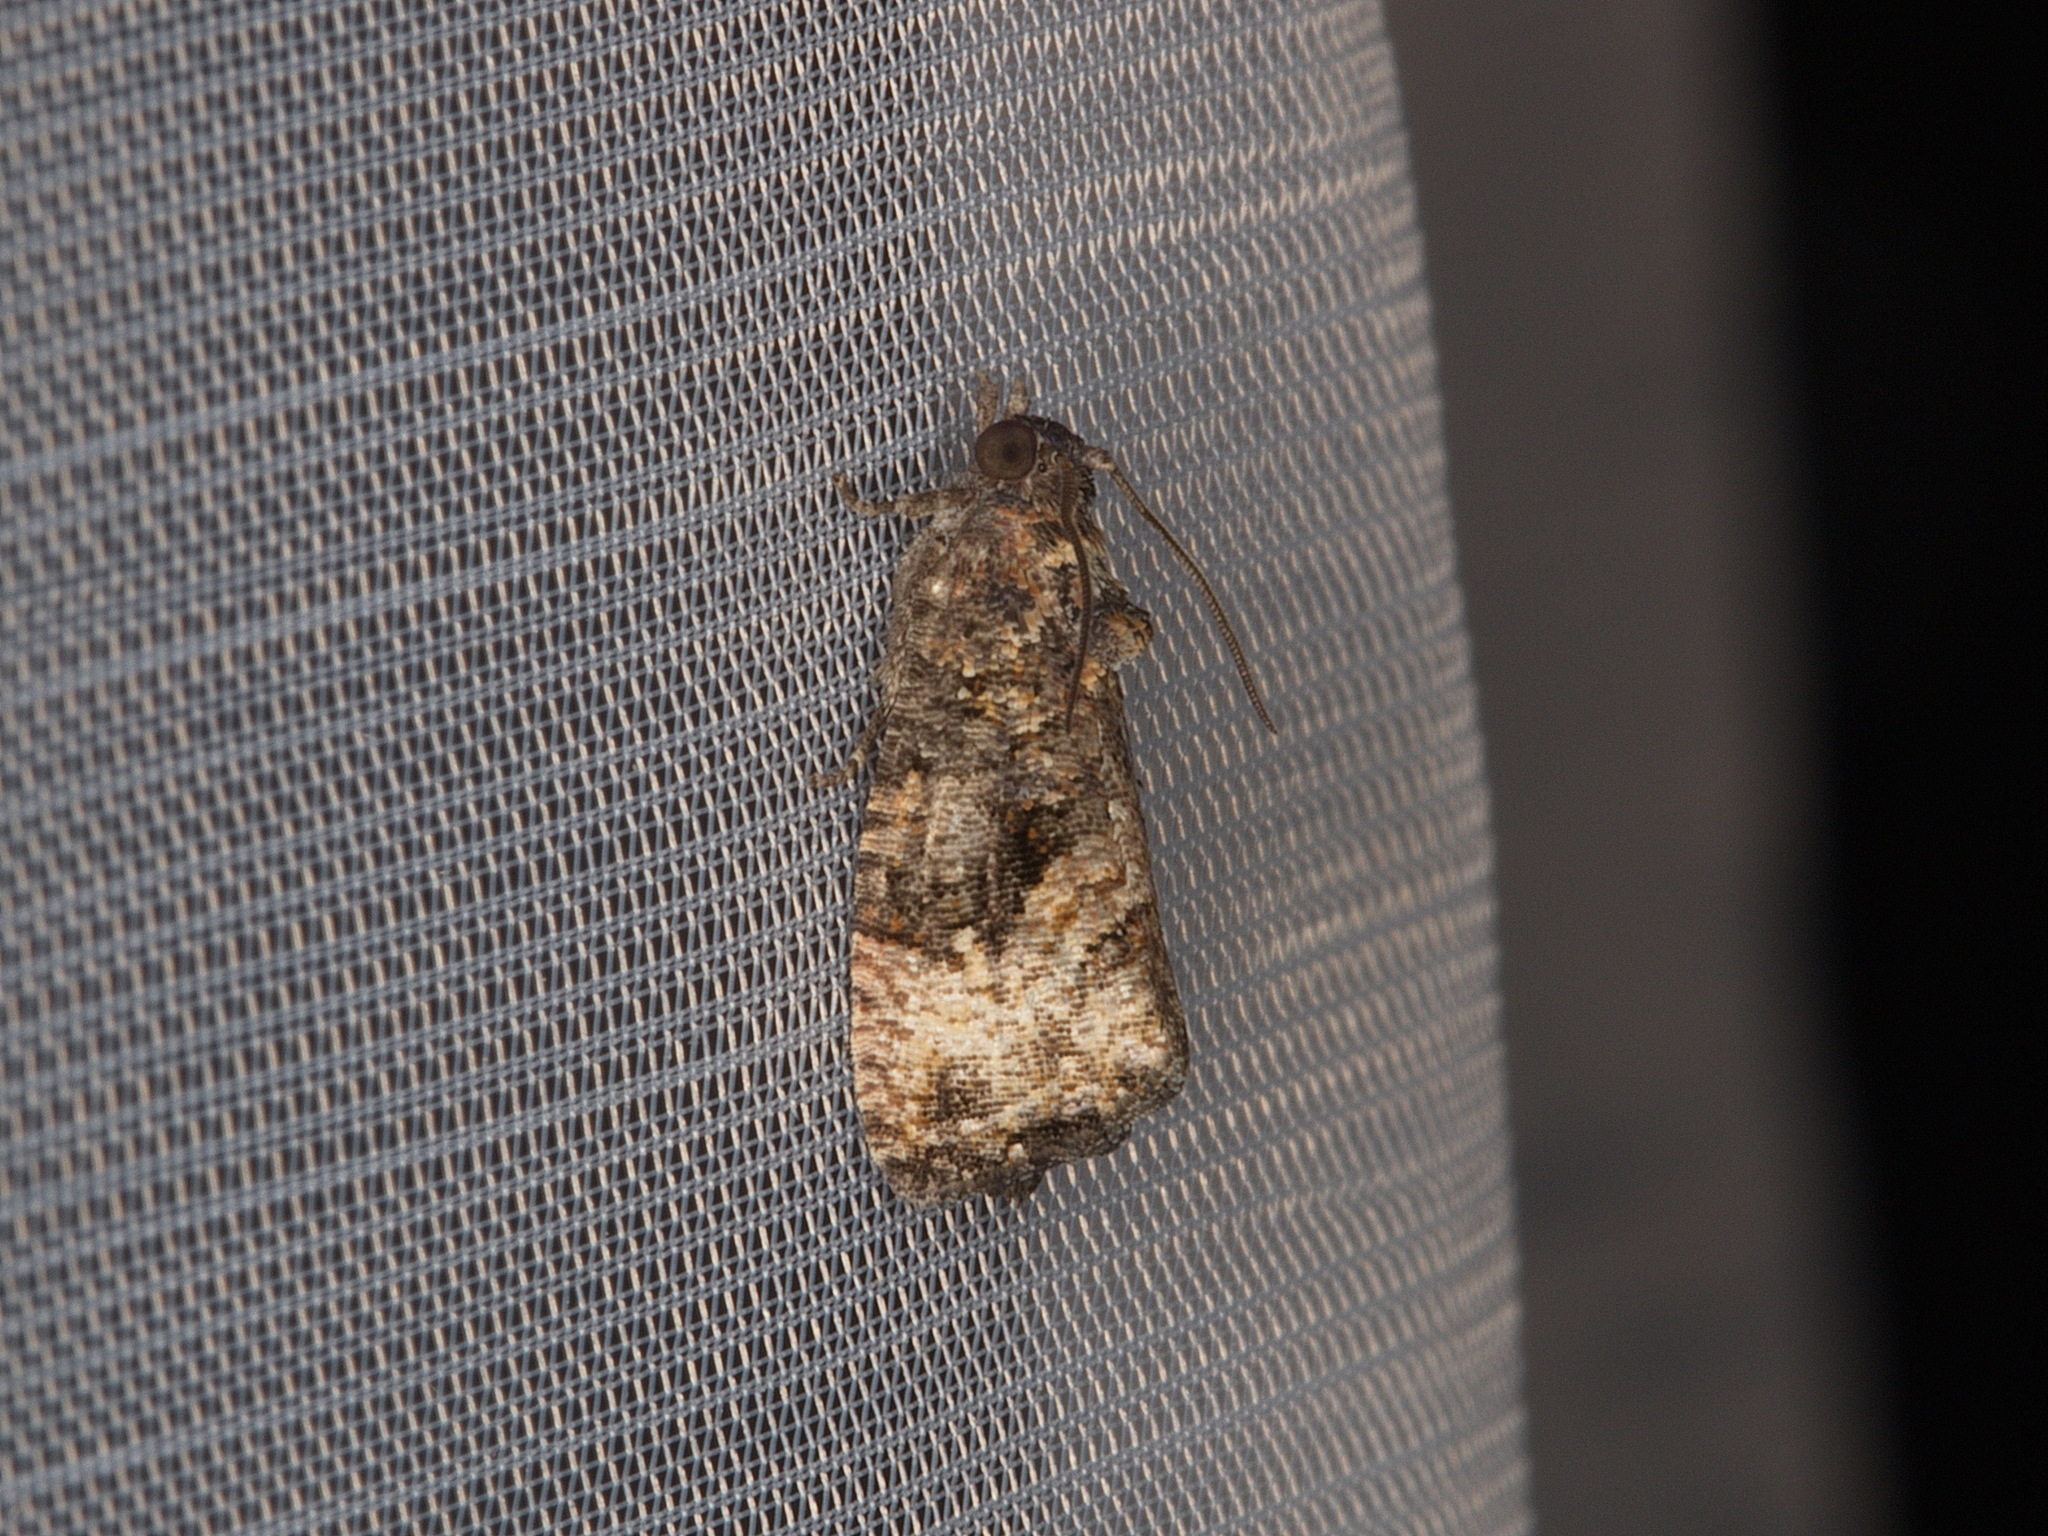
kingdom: Animalia
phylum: Arthropoda
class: Insecta
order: Lepidoptera
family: Tortricidae
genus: Gymnandrosoma
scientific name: Gymnandrosoma punctidiscanum
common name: Dotted ecdytolopha moth
